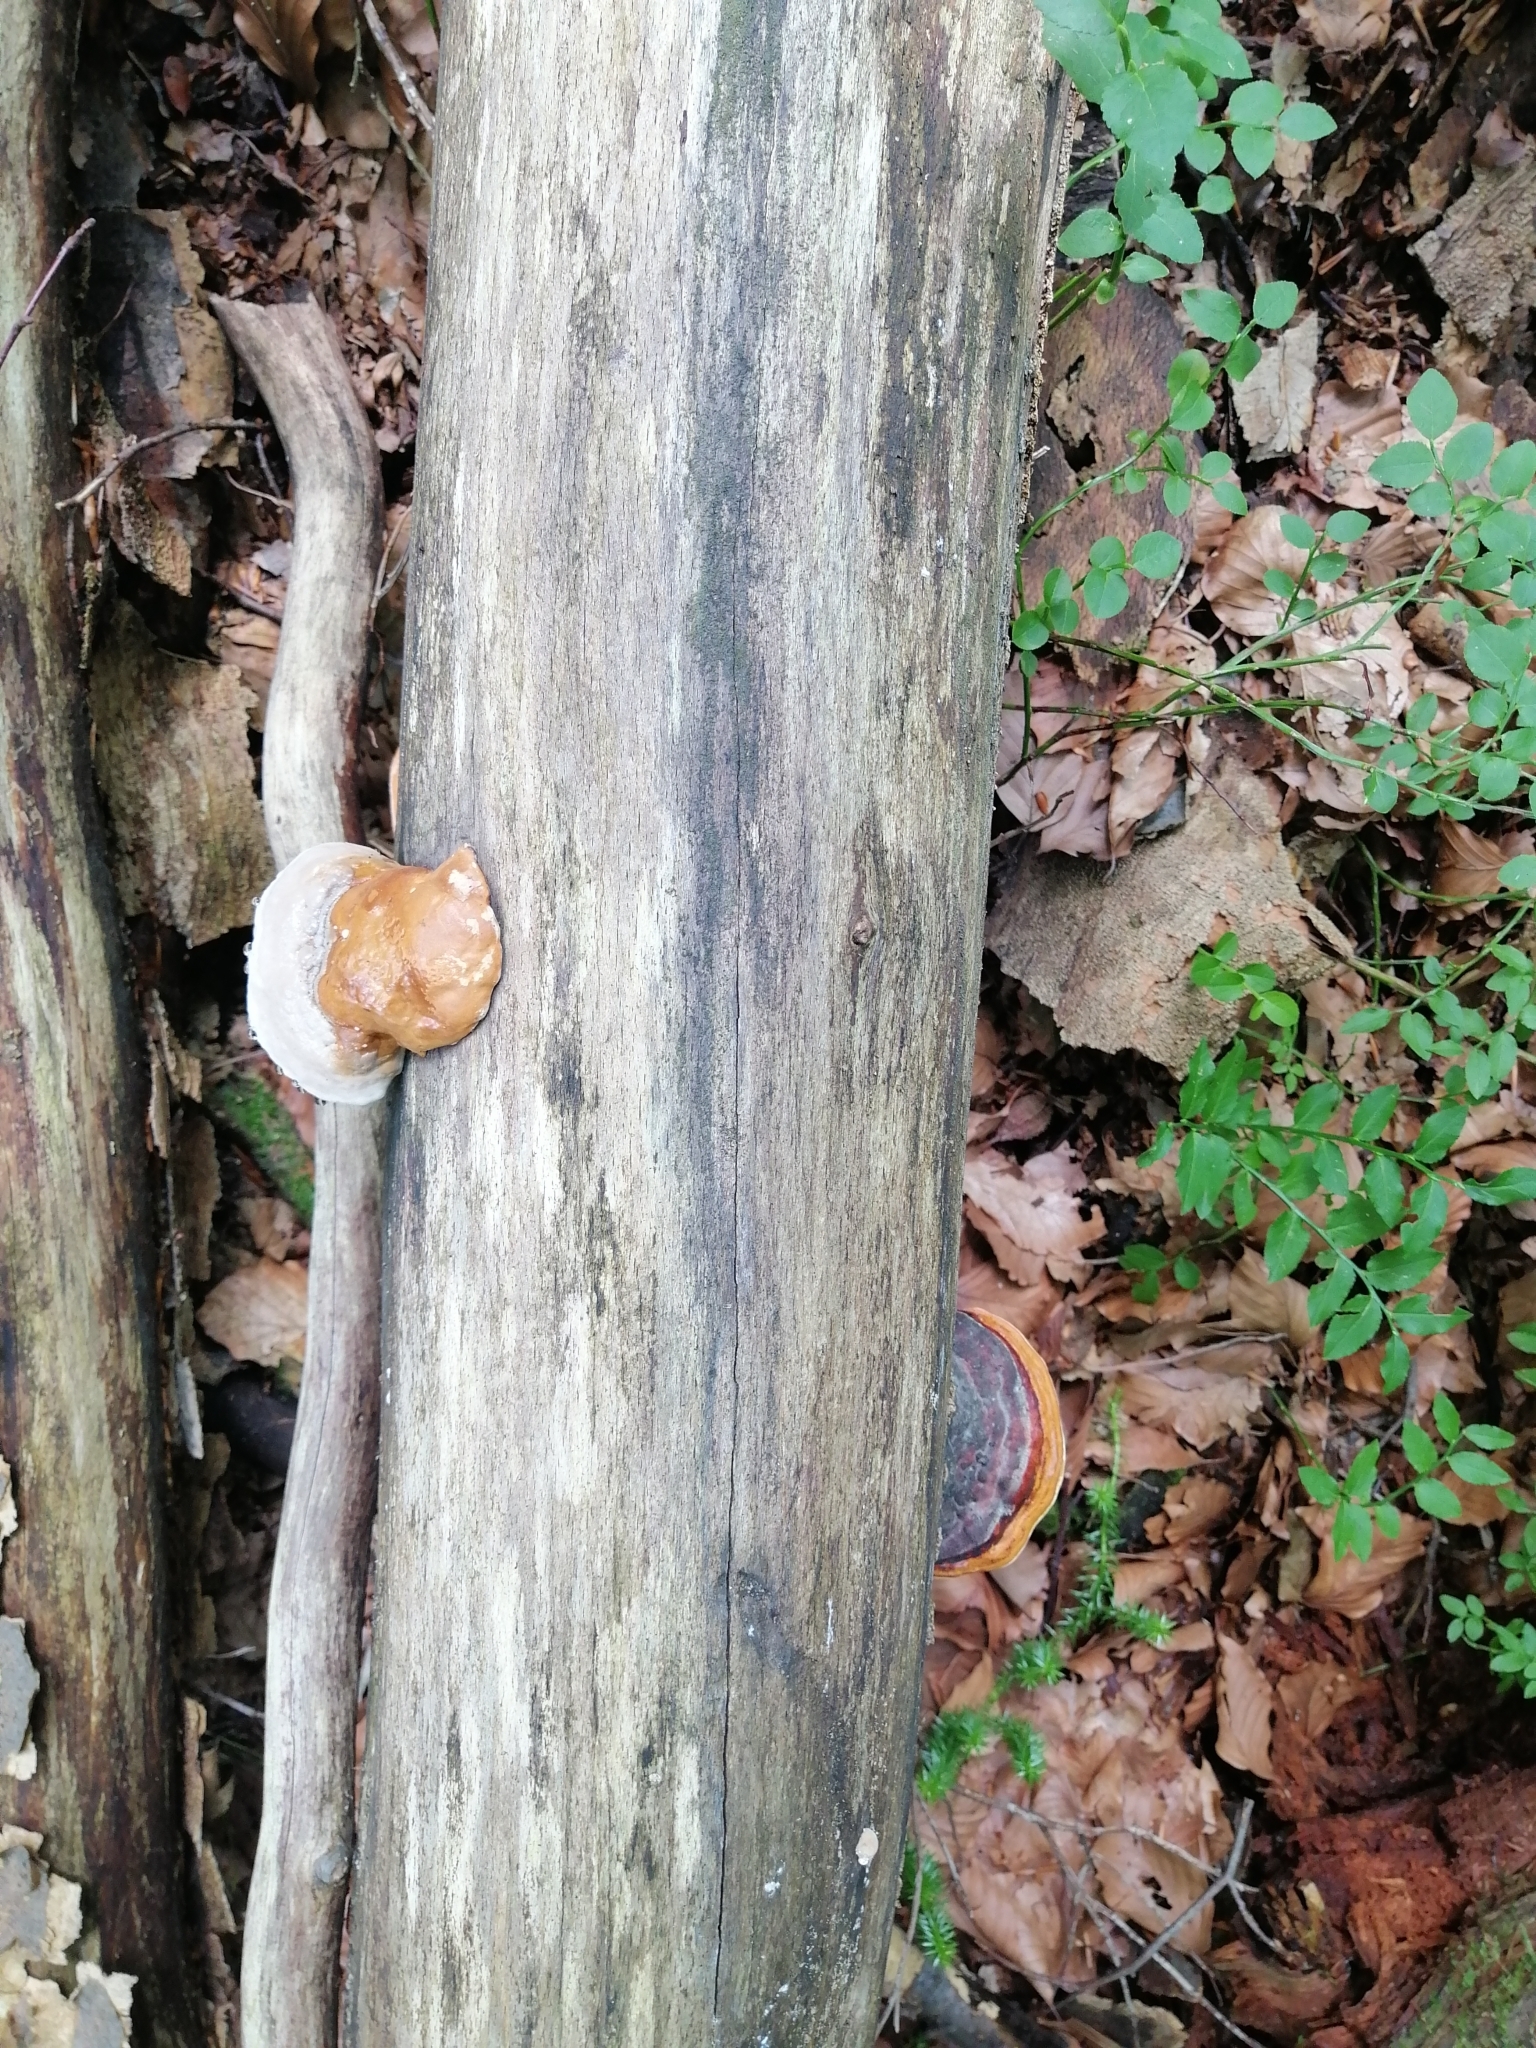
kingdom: Fungi
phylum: Basidiomycota
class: Agaricomycetes
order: Polyporales
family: Fomitopsidaceae
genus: Fomitopsis
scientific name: Fomitopsis pinicola
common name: Red-belted bracket
